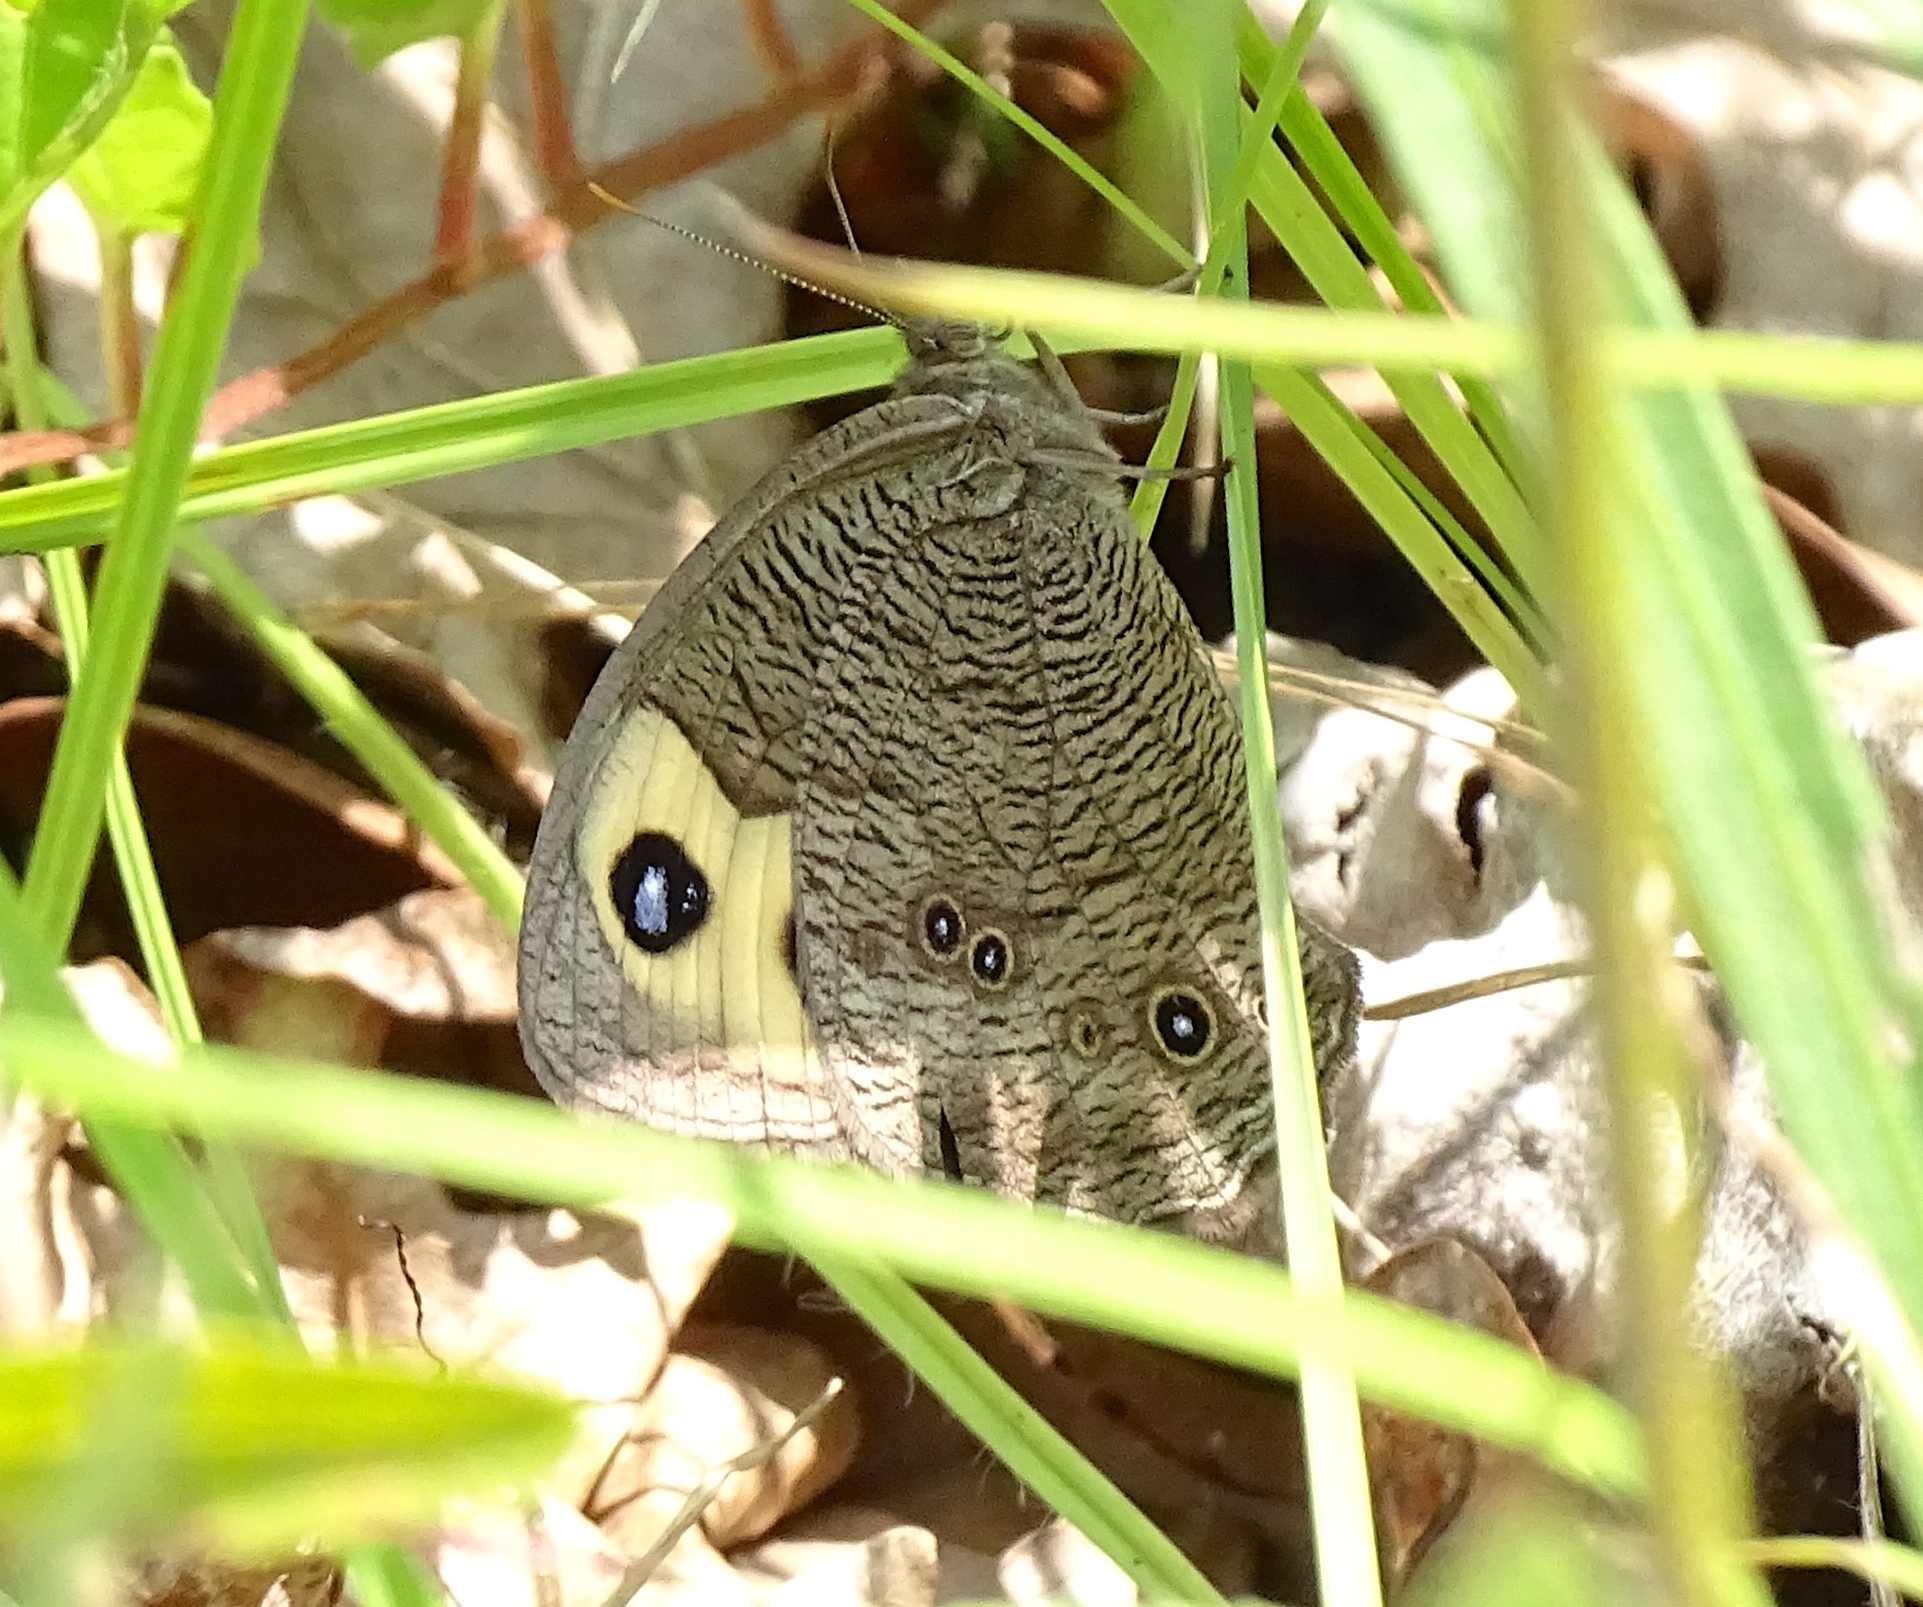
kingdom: Animalia
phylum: Arthropoda
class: Insecta
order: Lepidoptera
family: Nymphalidae
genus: Cercyonis
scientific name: Cercyonis pegala
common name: Common wood-nymph
